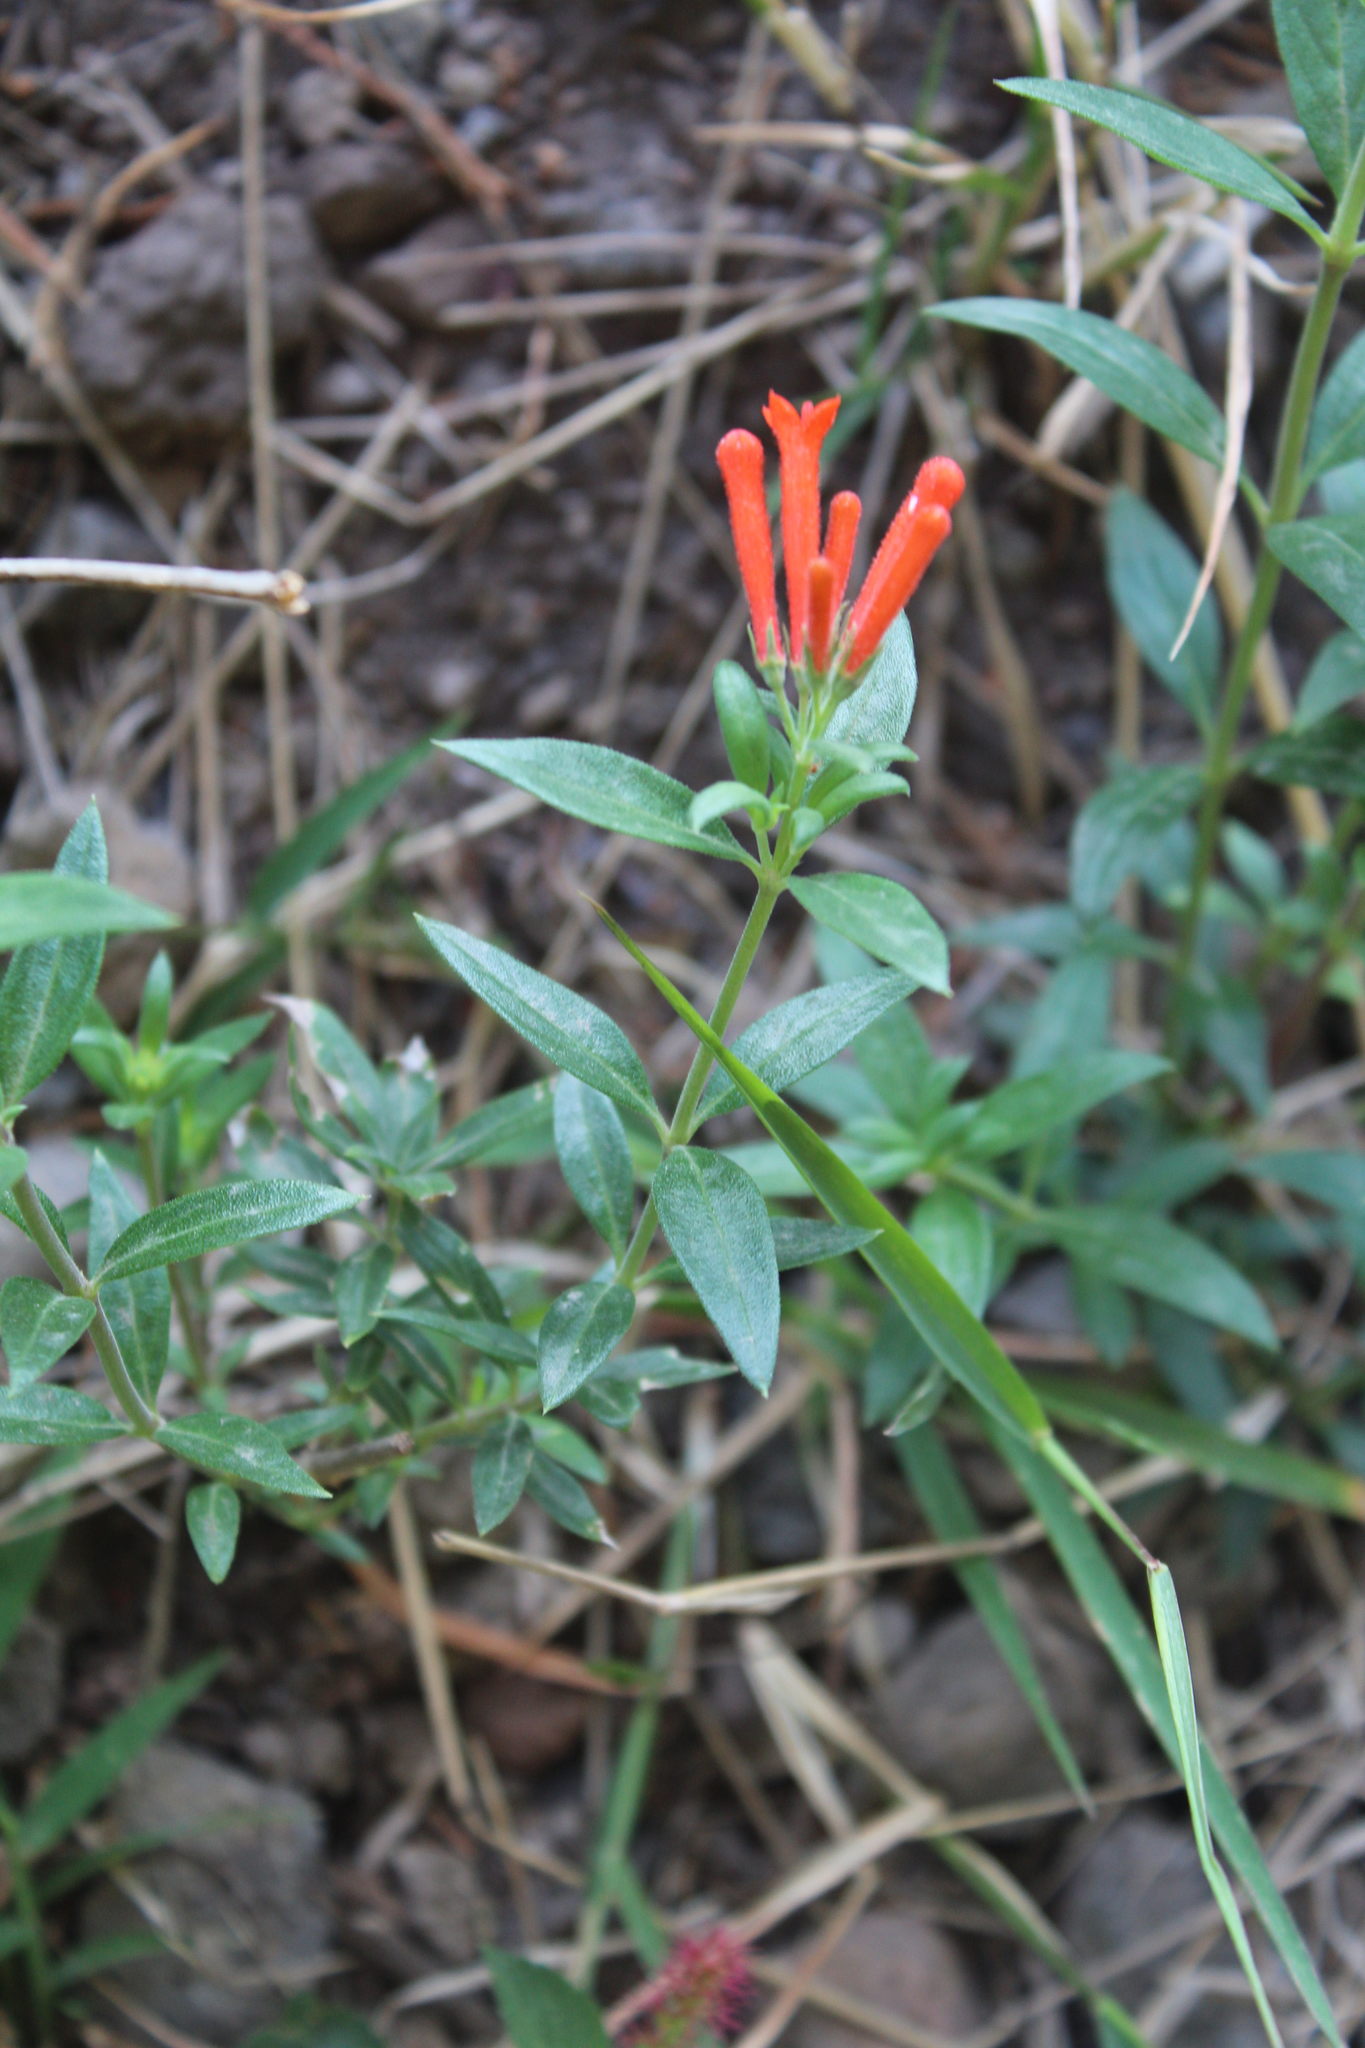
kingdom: Plantae
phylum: Tracheophyta
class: Magnoliopsida
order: Gentianales
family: Rubiaceae
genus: Bouvardia
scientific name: Bouvardia ternifolia
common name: Scarlet bouvardia
